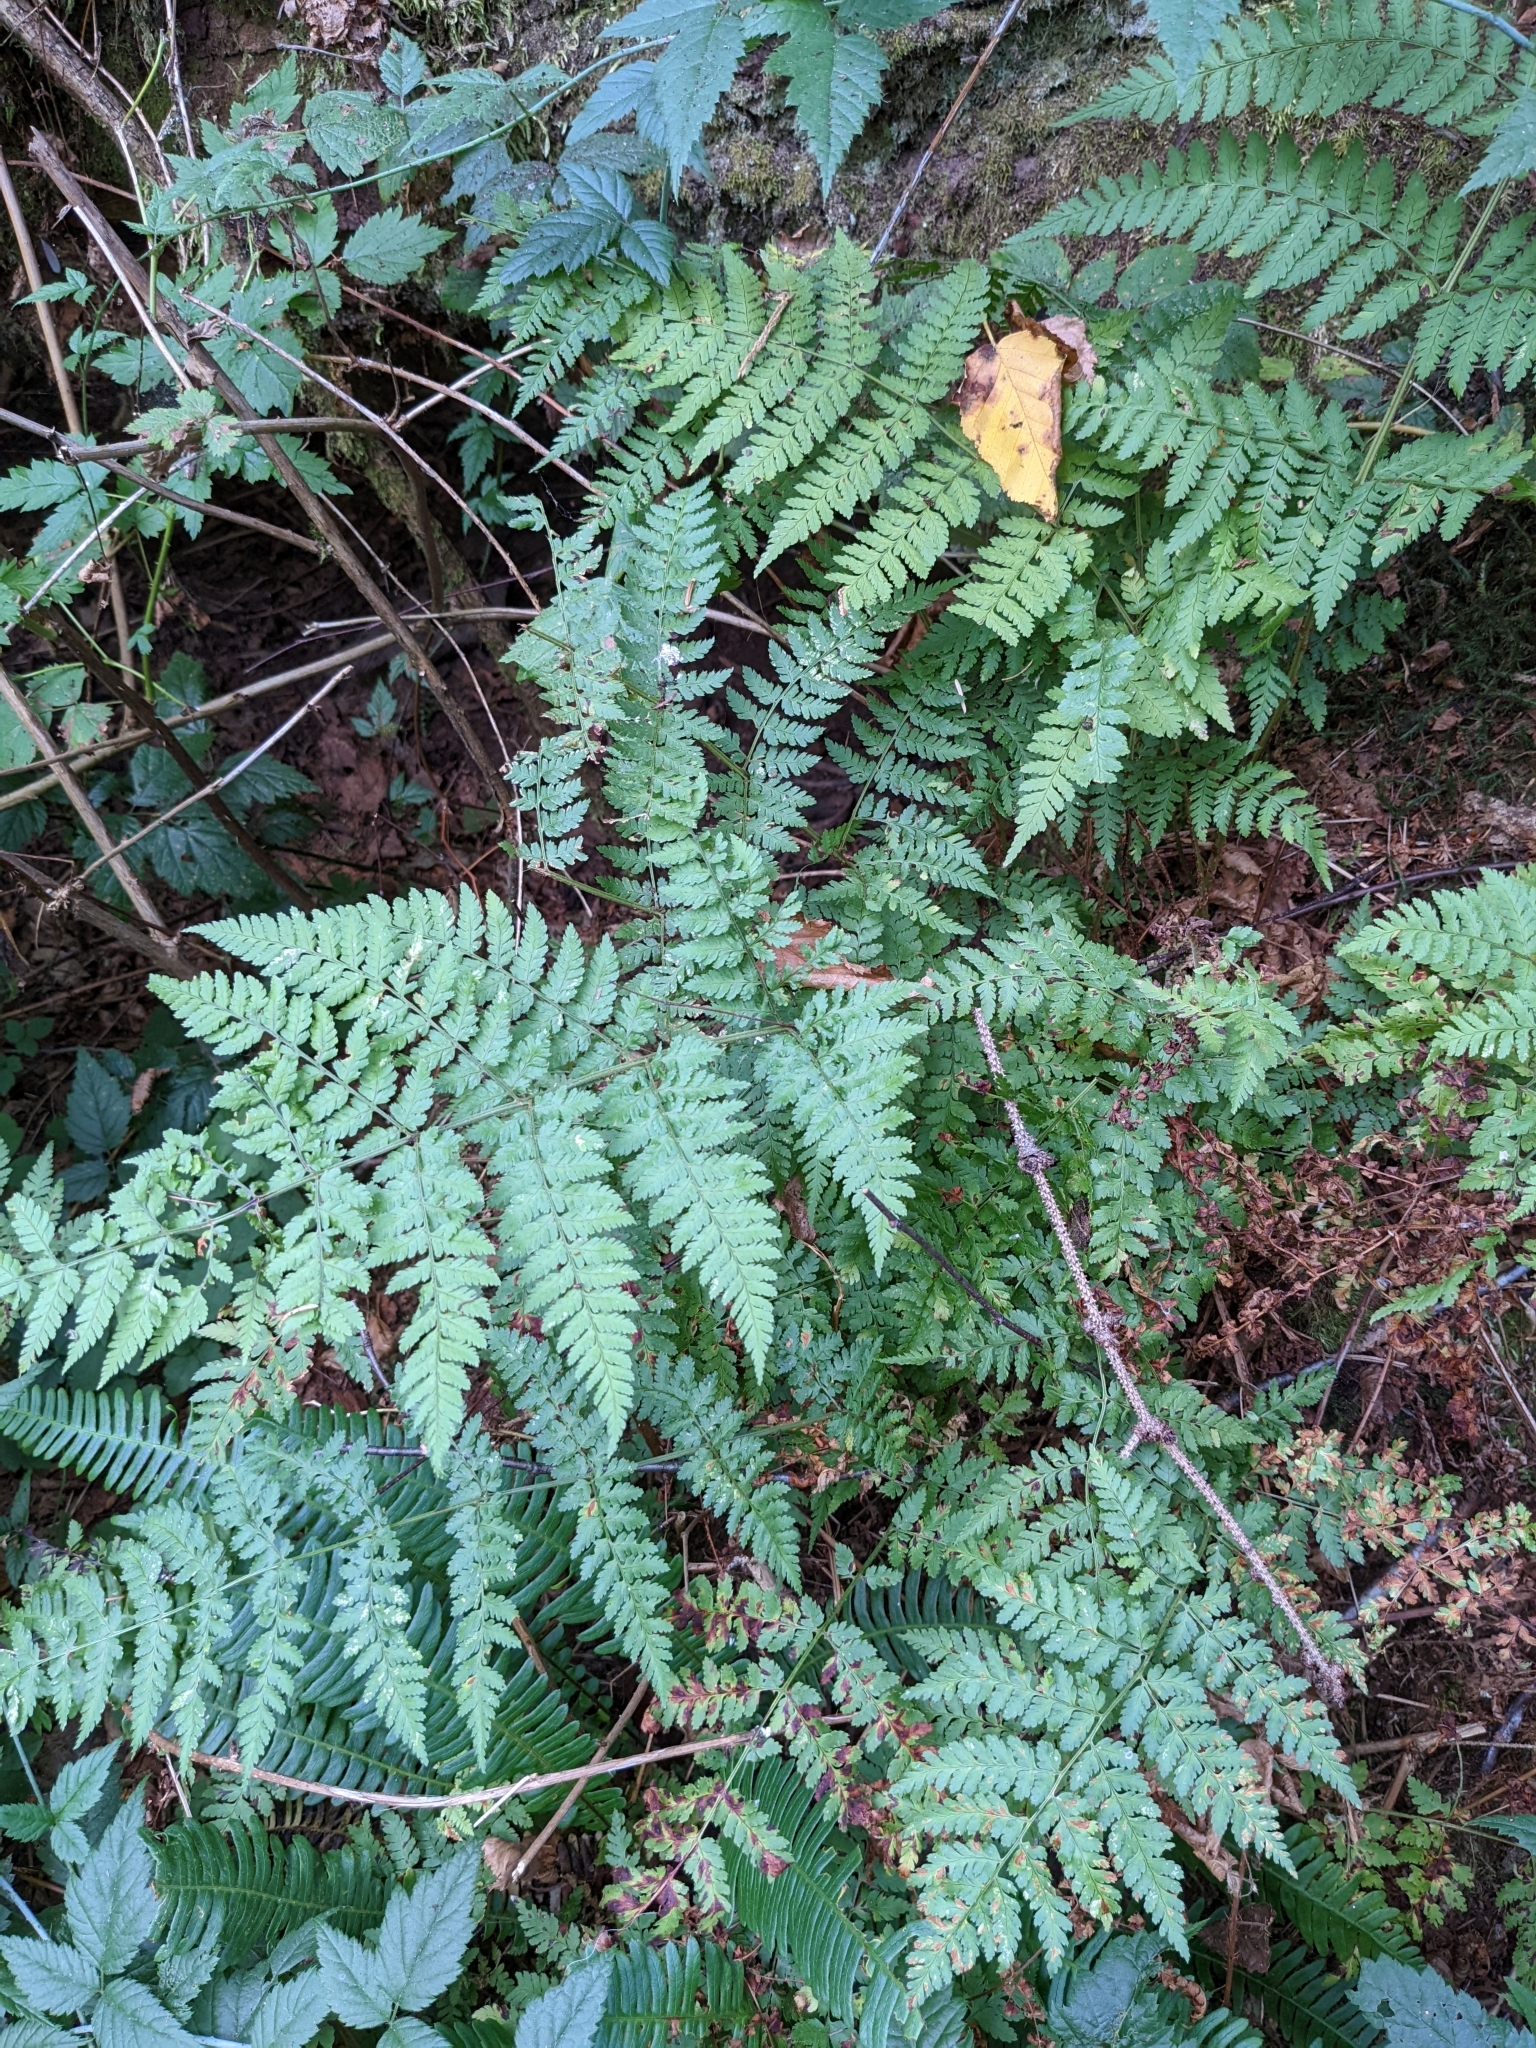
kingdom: Plantae
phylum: Tracheophyta
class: Polypodiopsida
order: Polypodiales
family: Dryopteridaceae
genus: Dryopteris
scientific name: Dryopteris expansa
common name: Northern buckler fern
